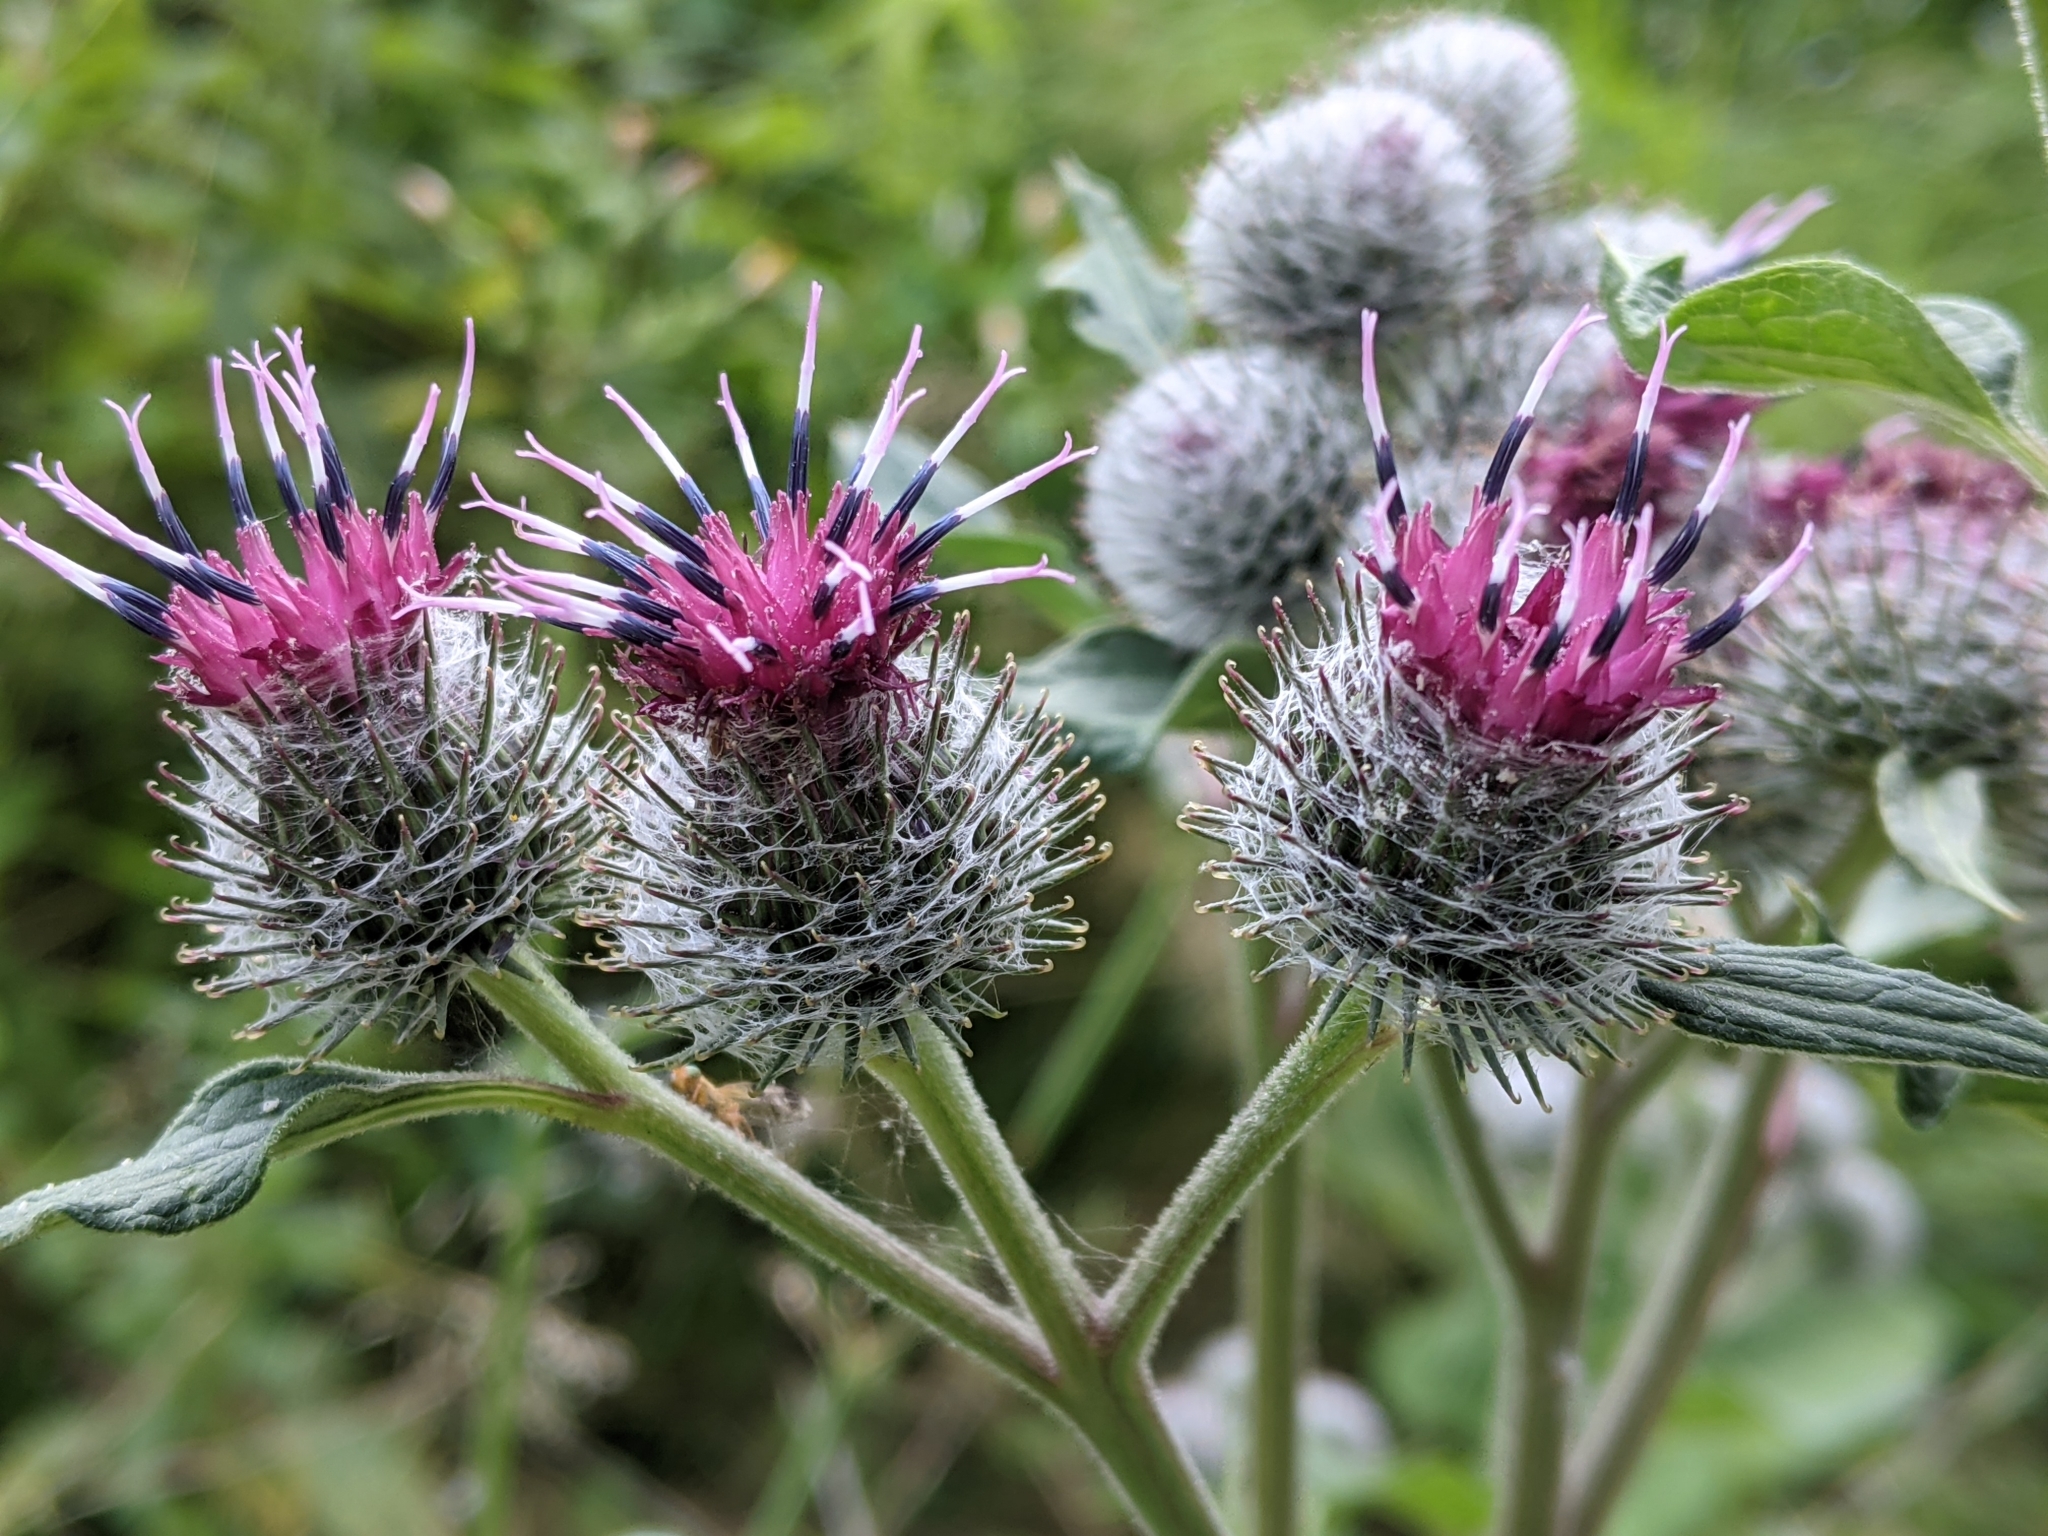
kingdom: Plantae
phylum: Tracheophyta
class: Magnoliopsida
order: Asterales
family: Asteraceae
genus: Arctium
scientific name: Arctium tomentosum
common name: Woolly burdock
